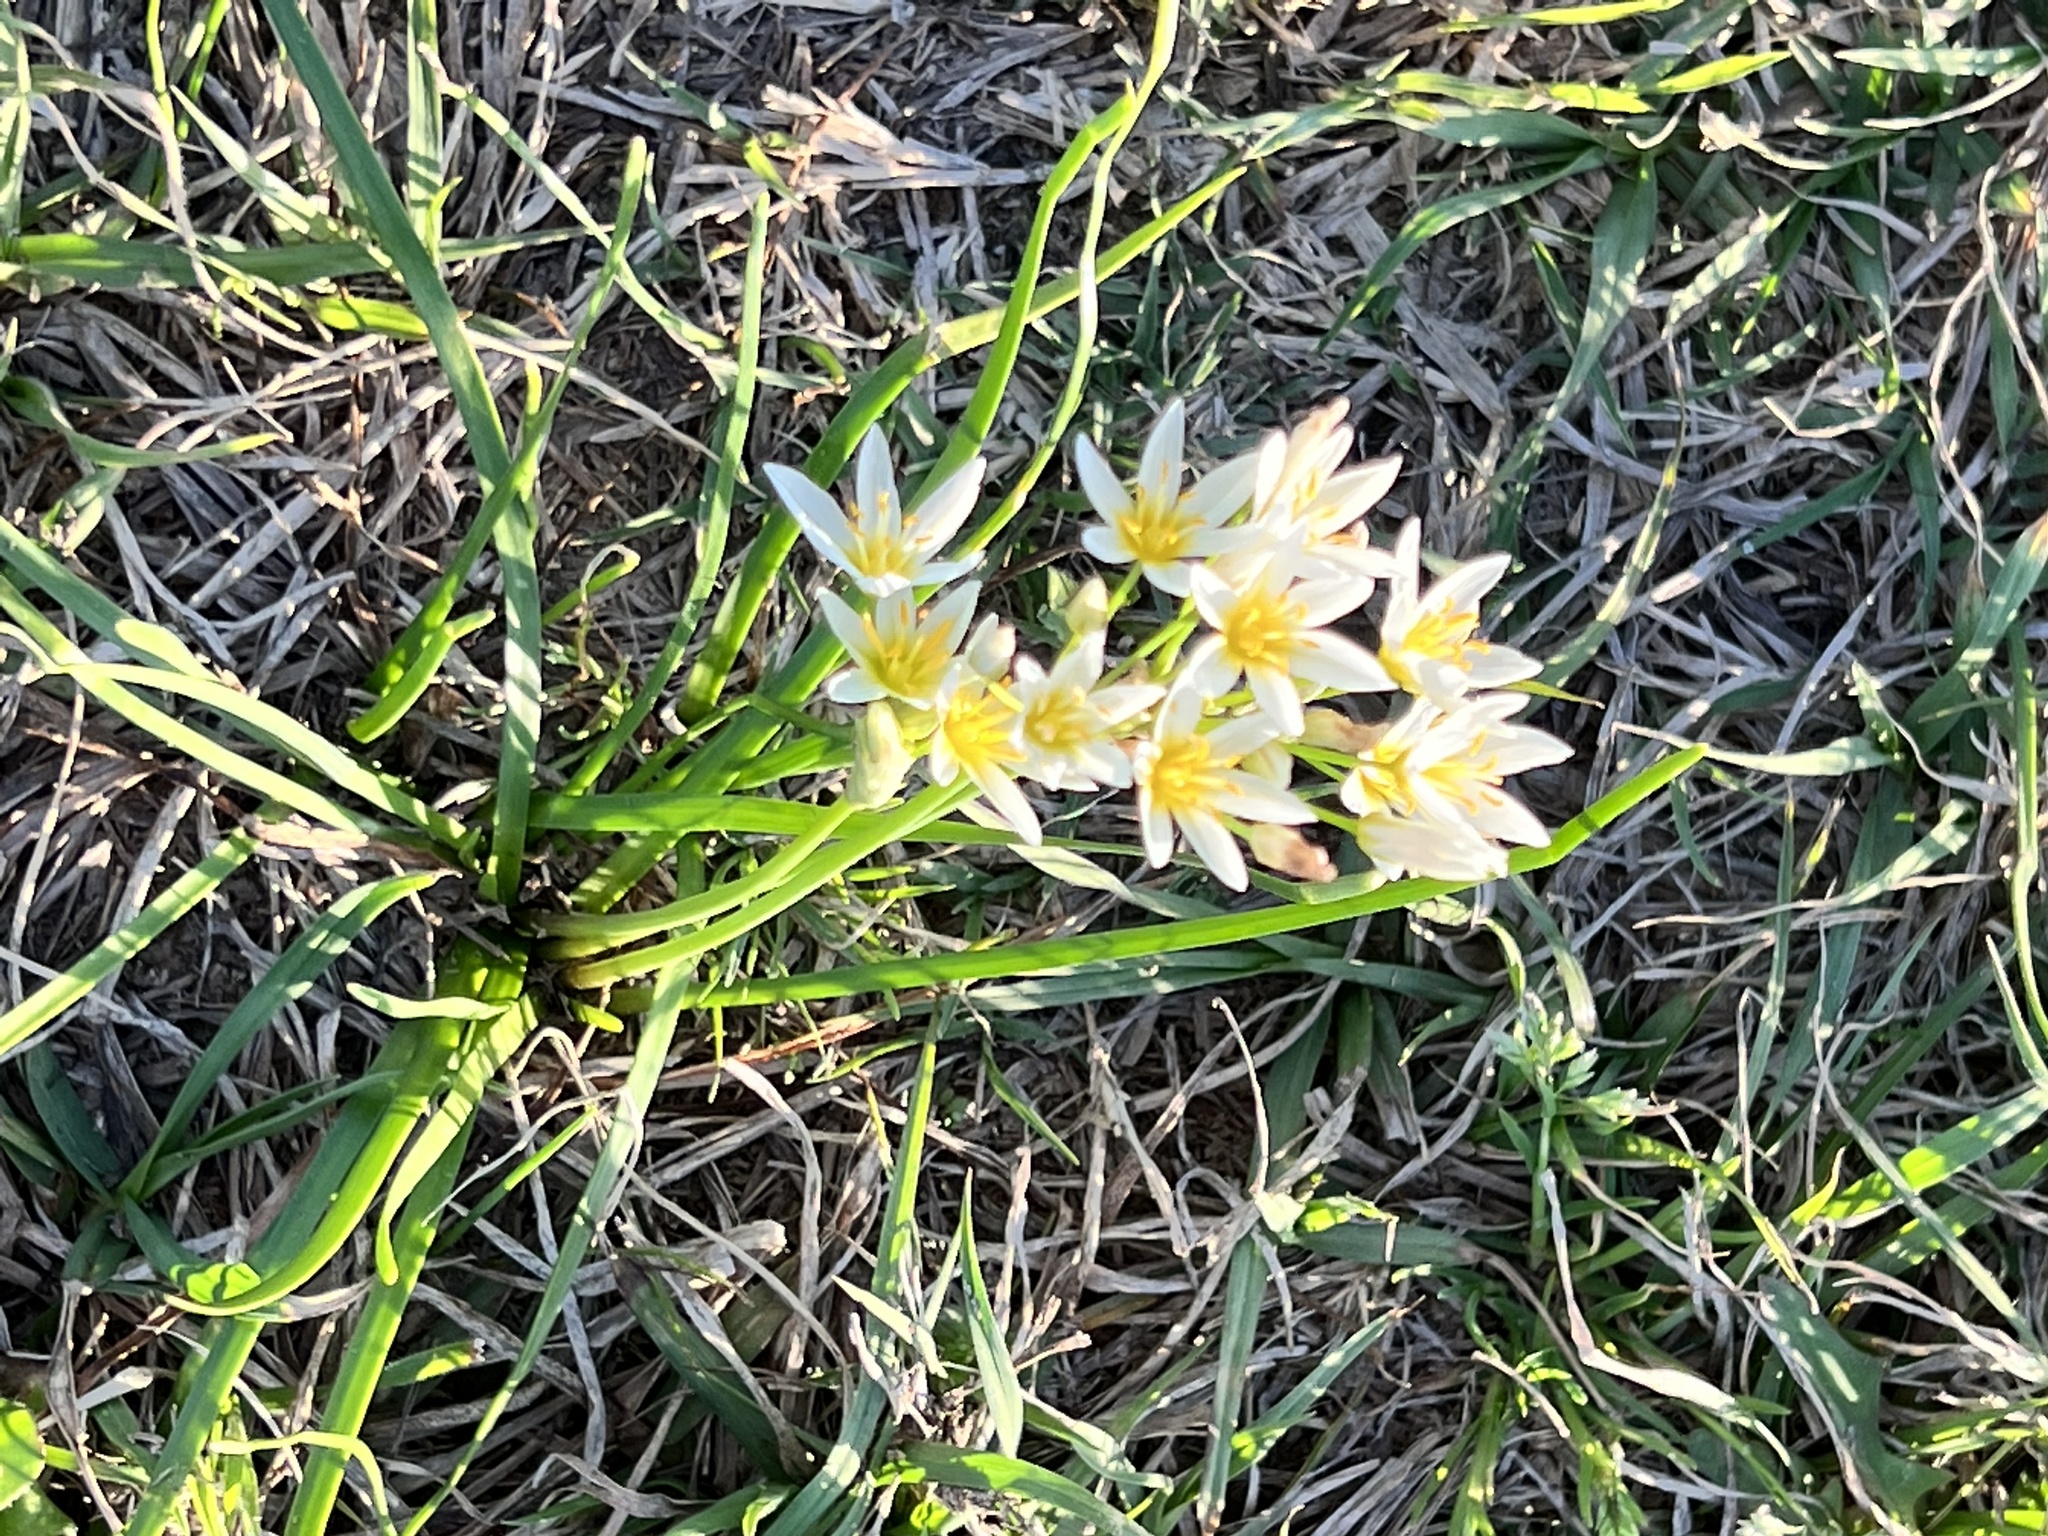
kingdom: Plantae
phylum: Tracheophyta
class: Liliopsida
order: Asparagales
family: Amaryllidaceae
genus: Nothoscordum
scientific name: Nothoscordum bivalve
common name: Crow-poison
